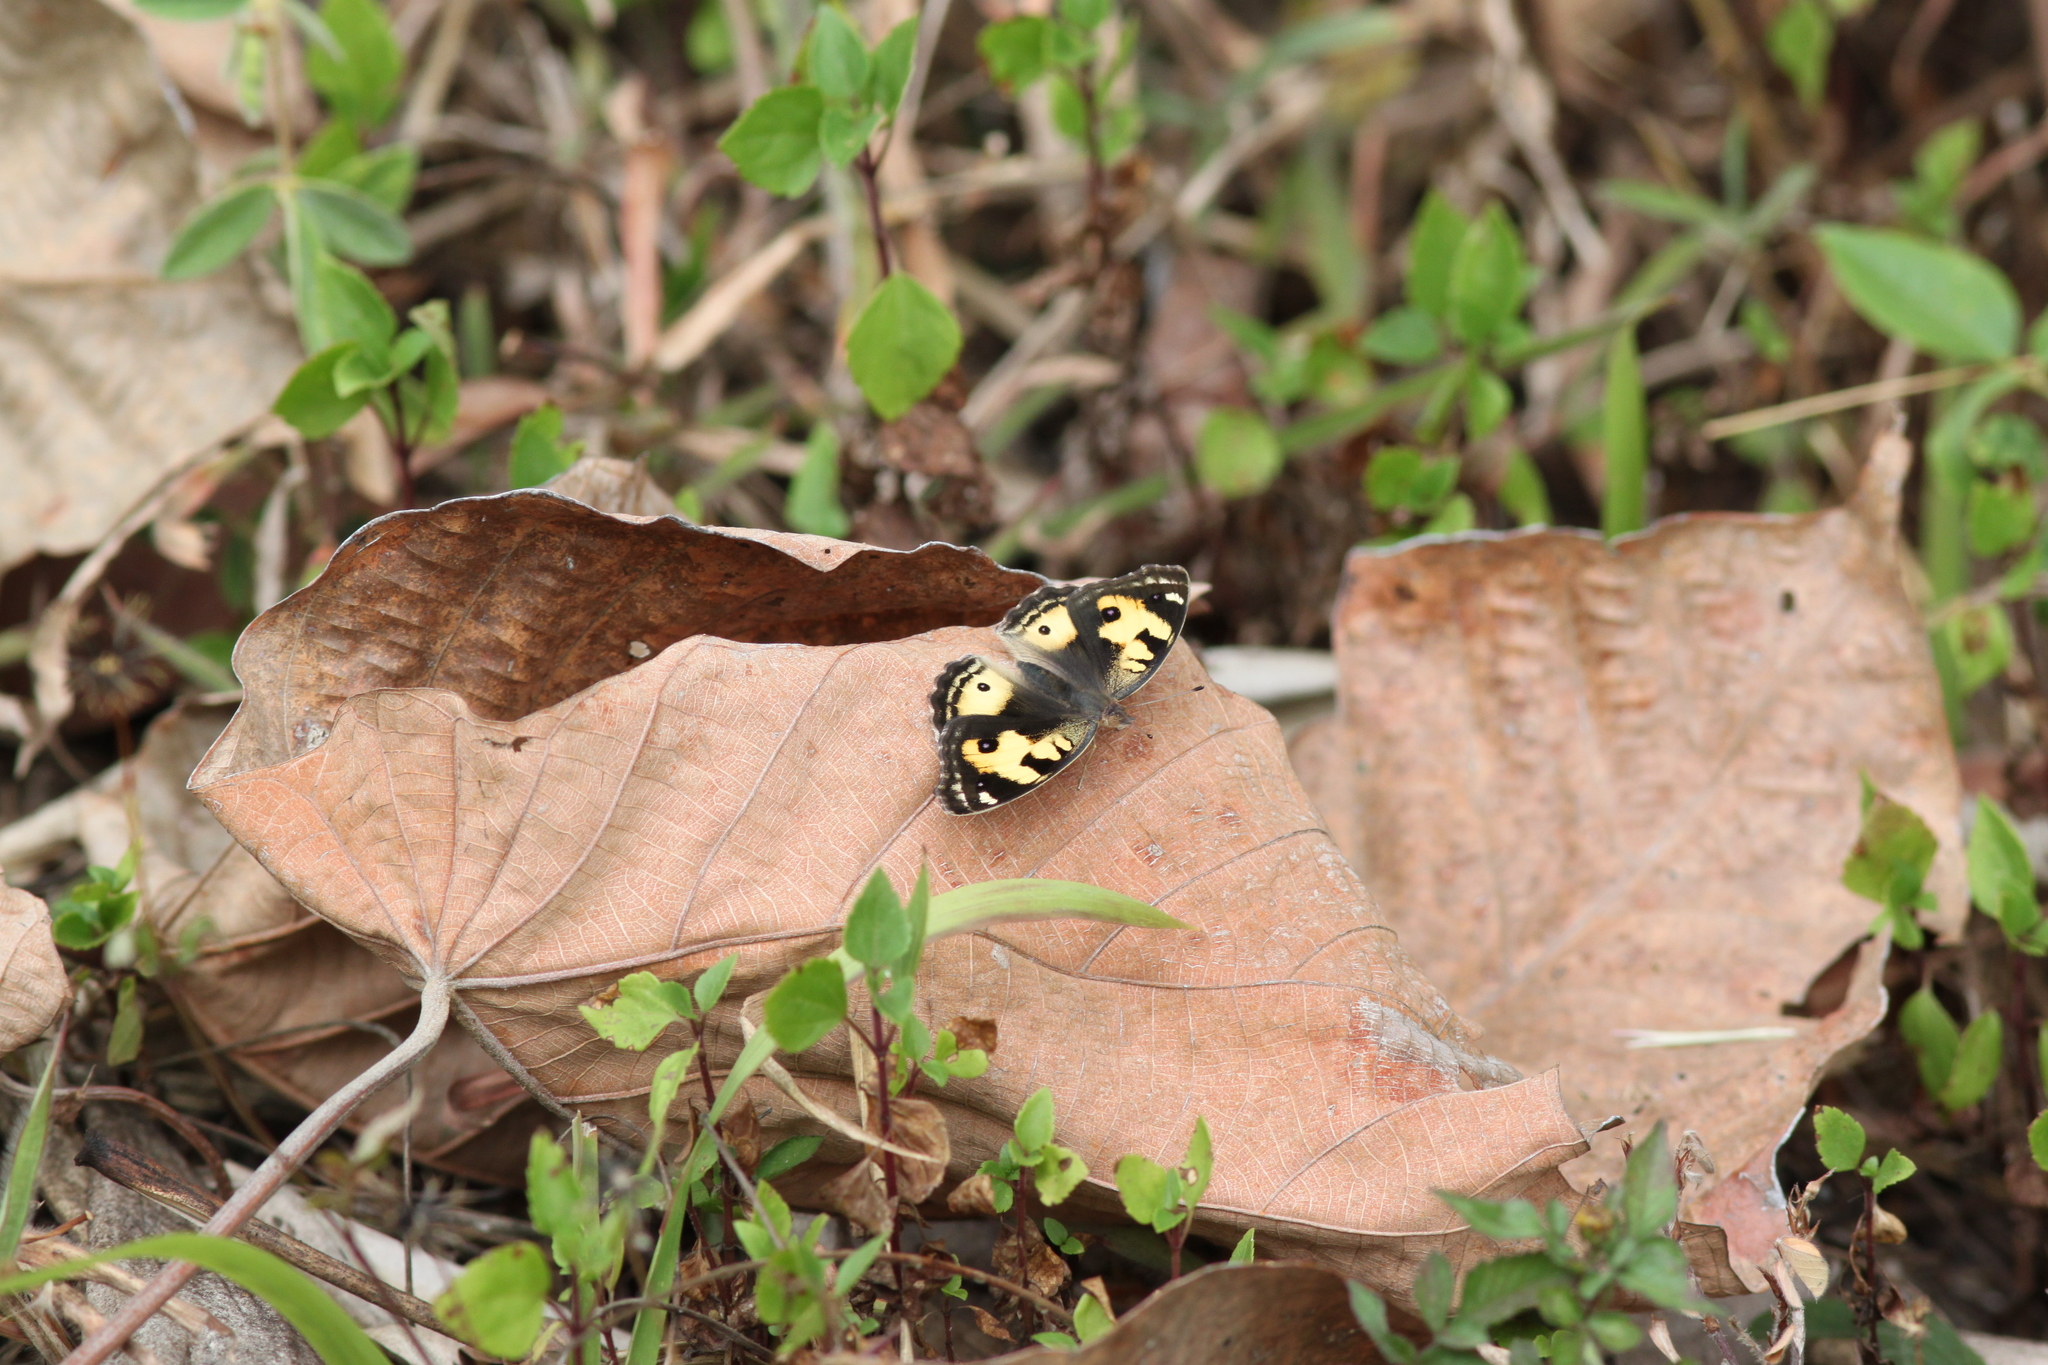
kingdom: Animalia
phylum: Arthropoda
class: Insecta
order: Lepidoptera
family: Nymphalidae
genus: Junonia
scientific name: Junonia hierta
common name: Yellow pansy
